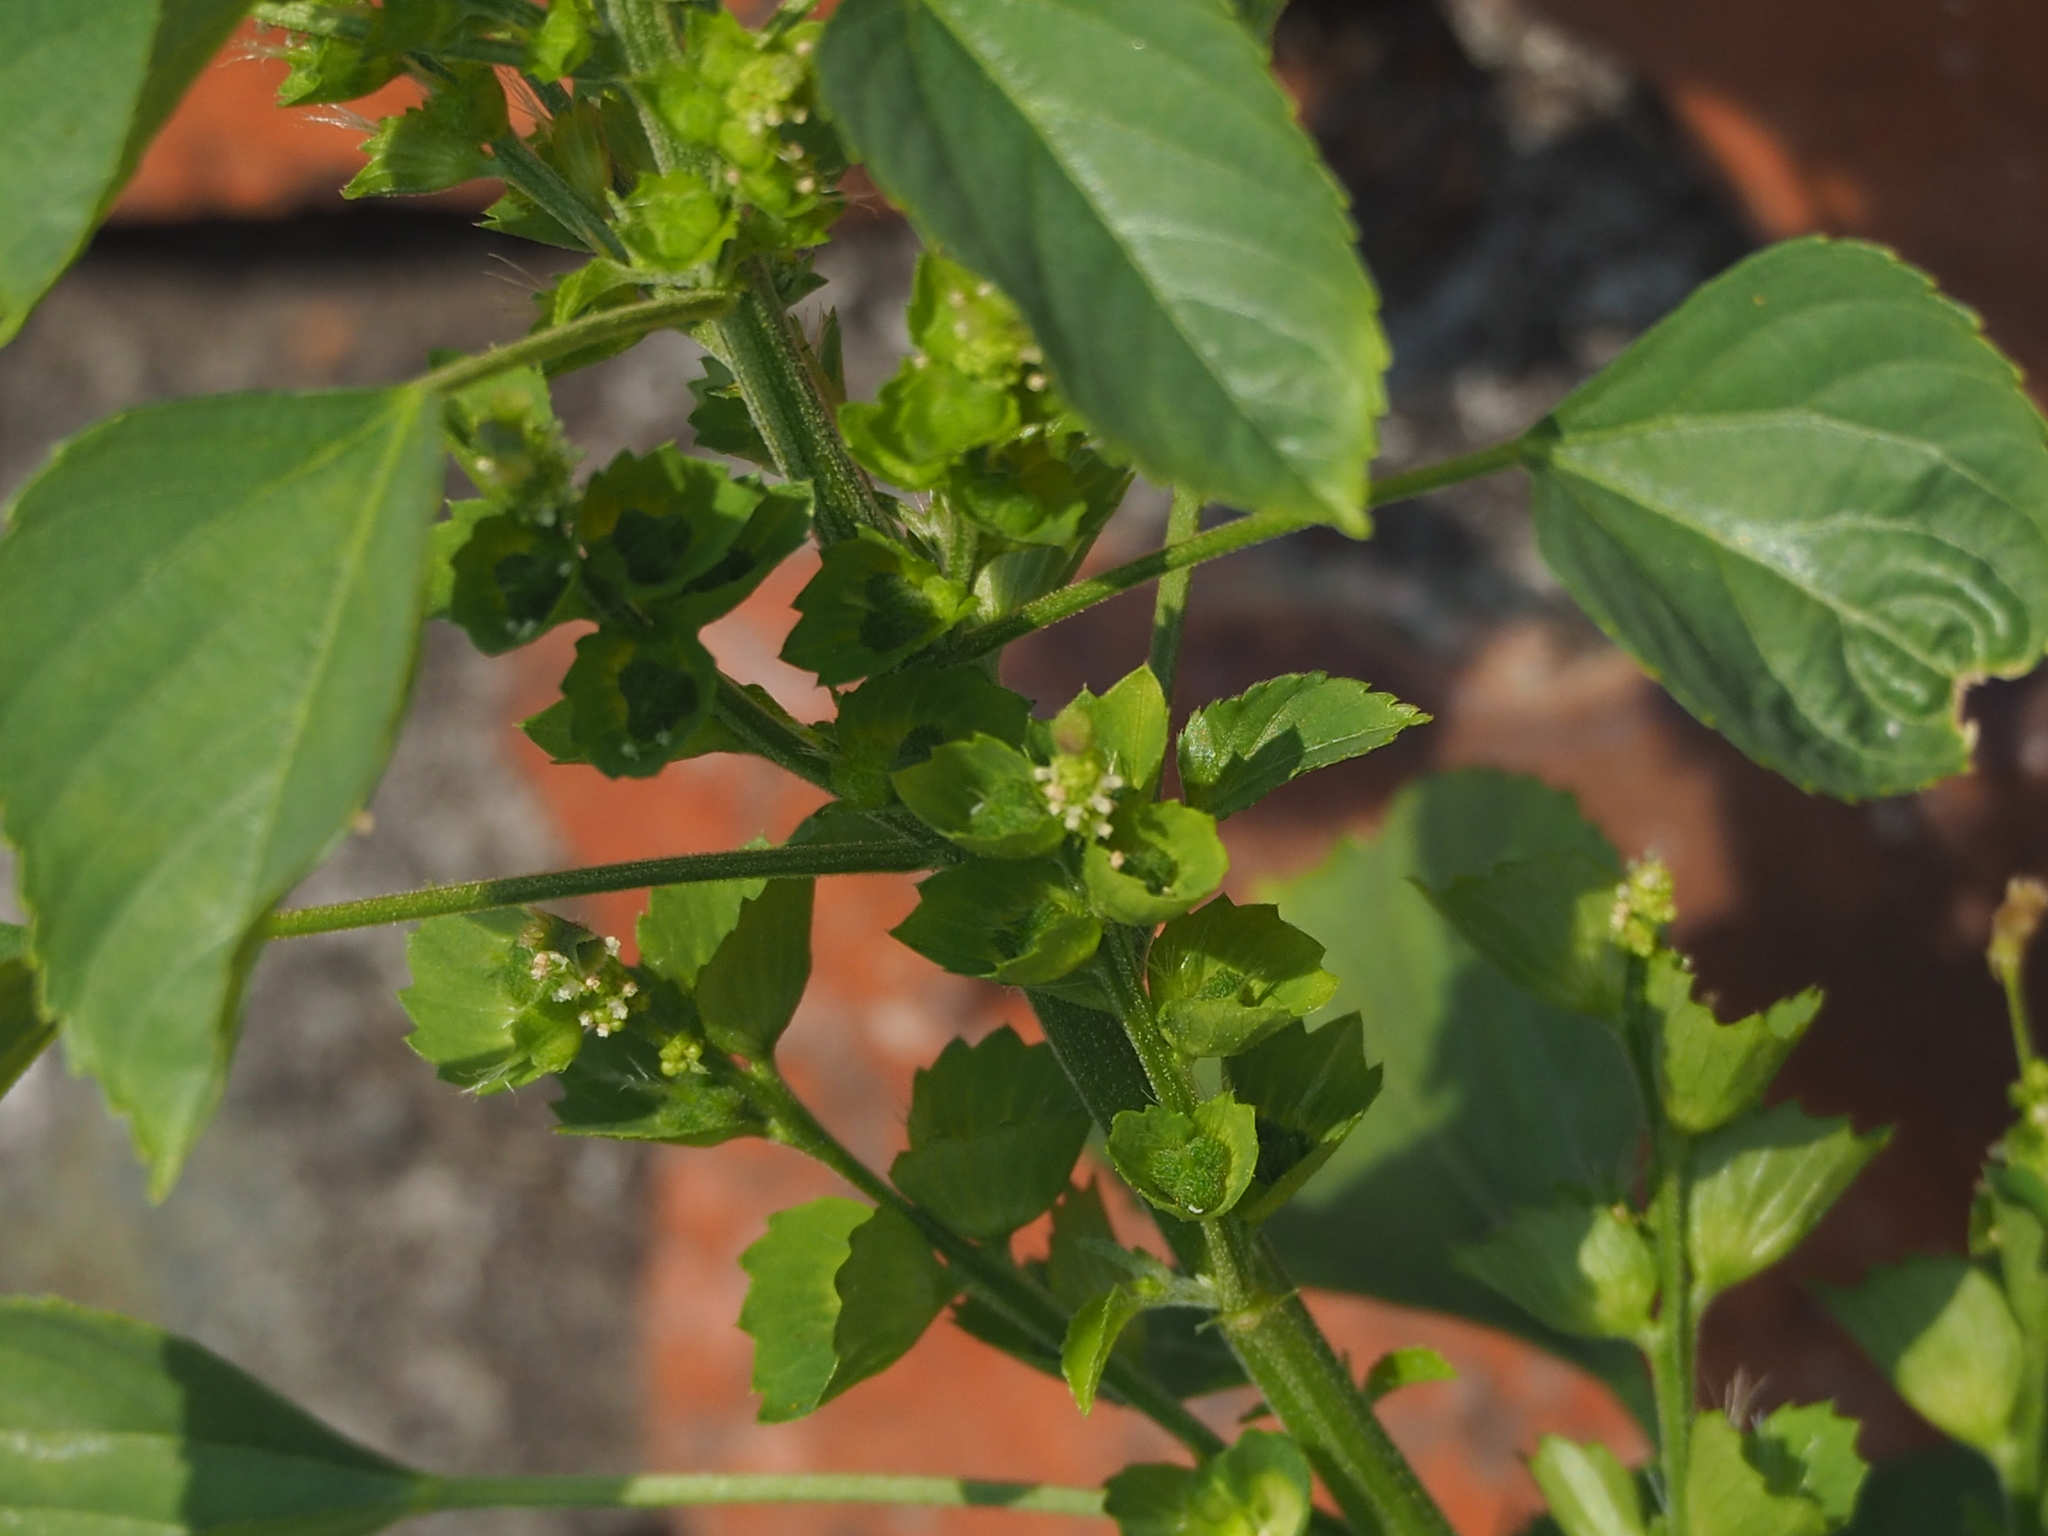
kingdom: Plantae
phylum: Tracheophyta
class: Magnoliopsida
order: Malpighiales
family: Euphorbiaceae
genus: Acalypha
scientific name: Acalypha indica
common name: Indian acalypha
